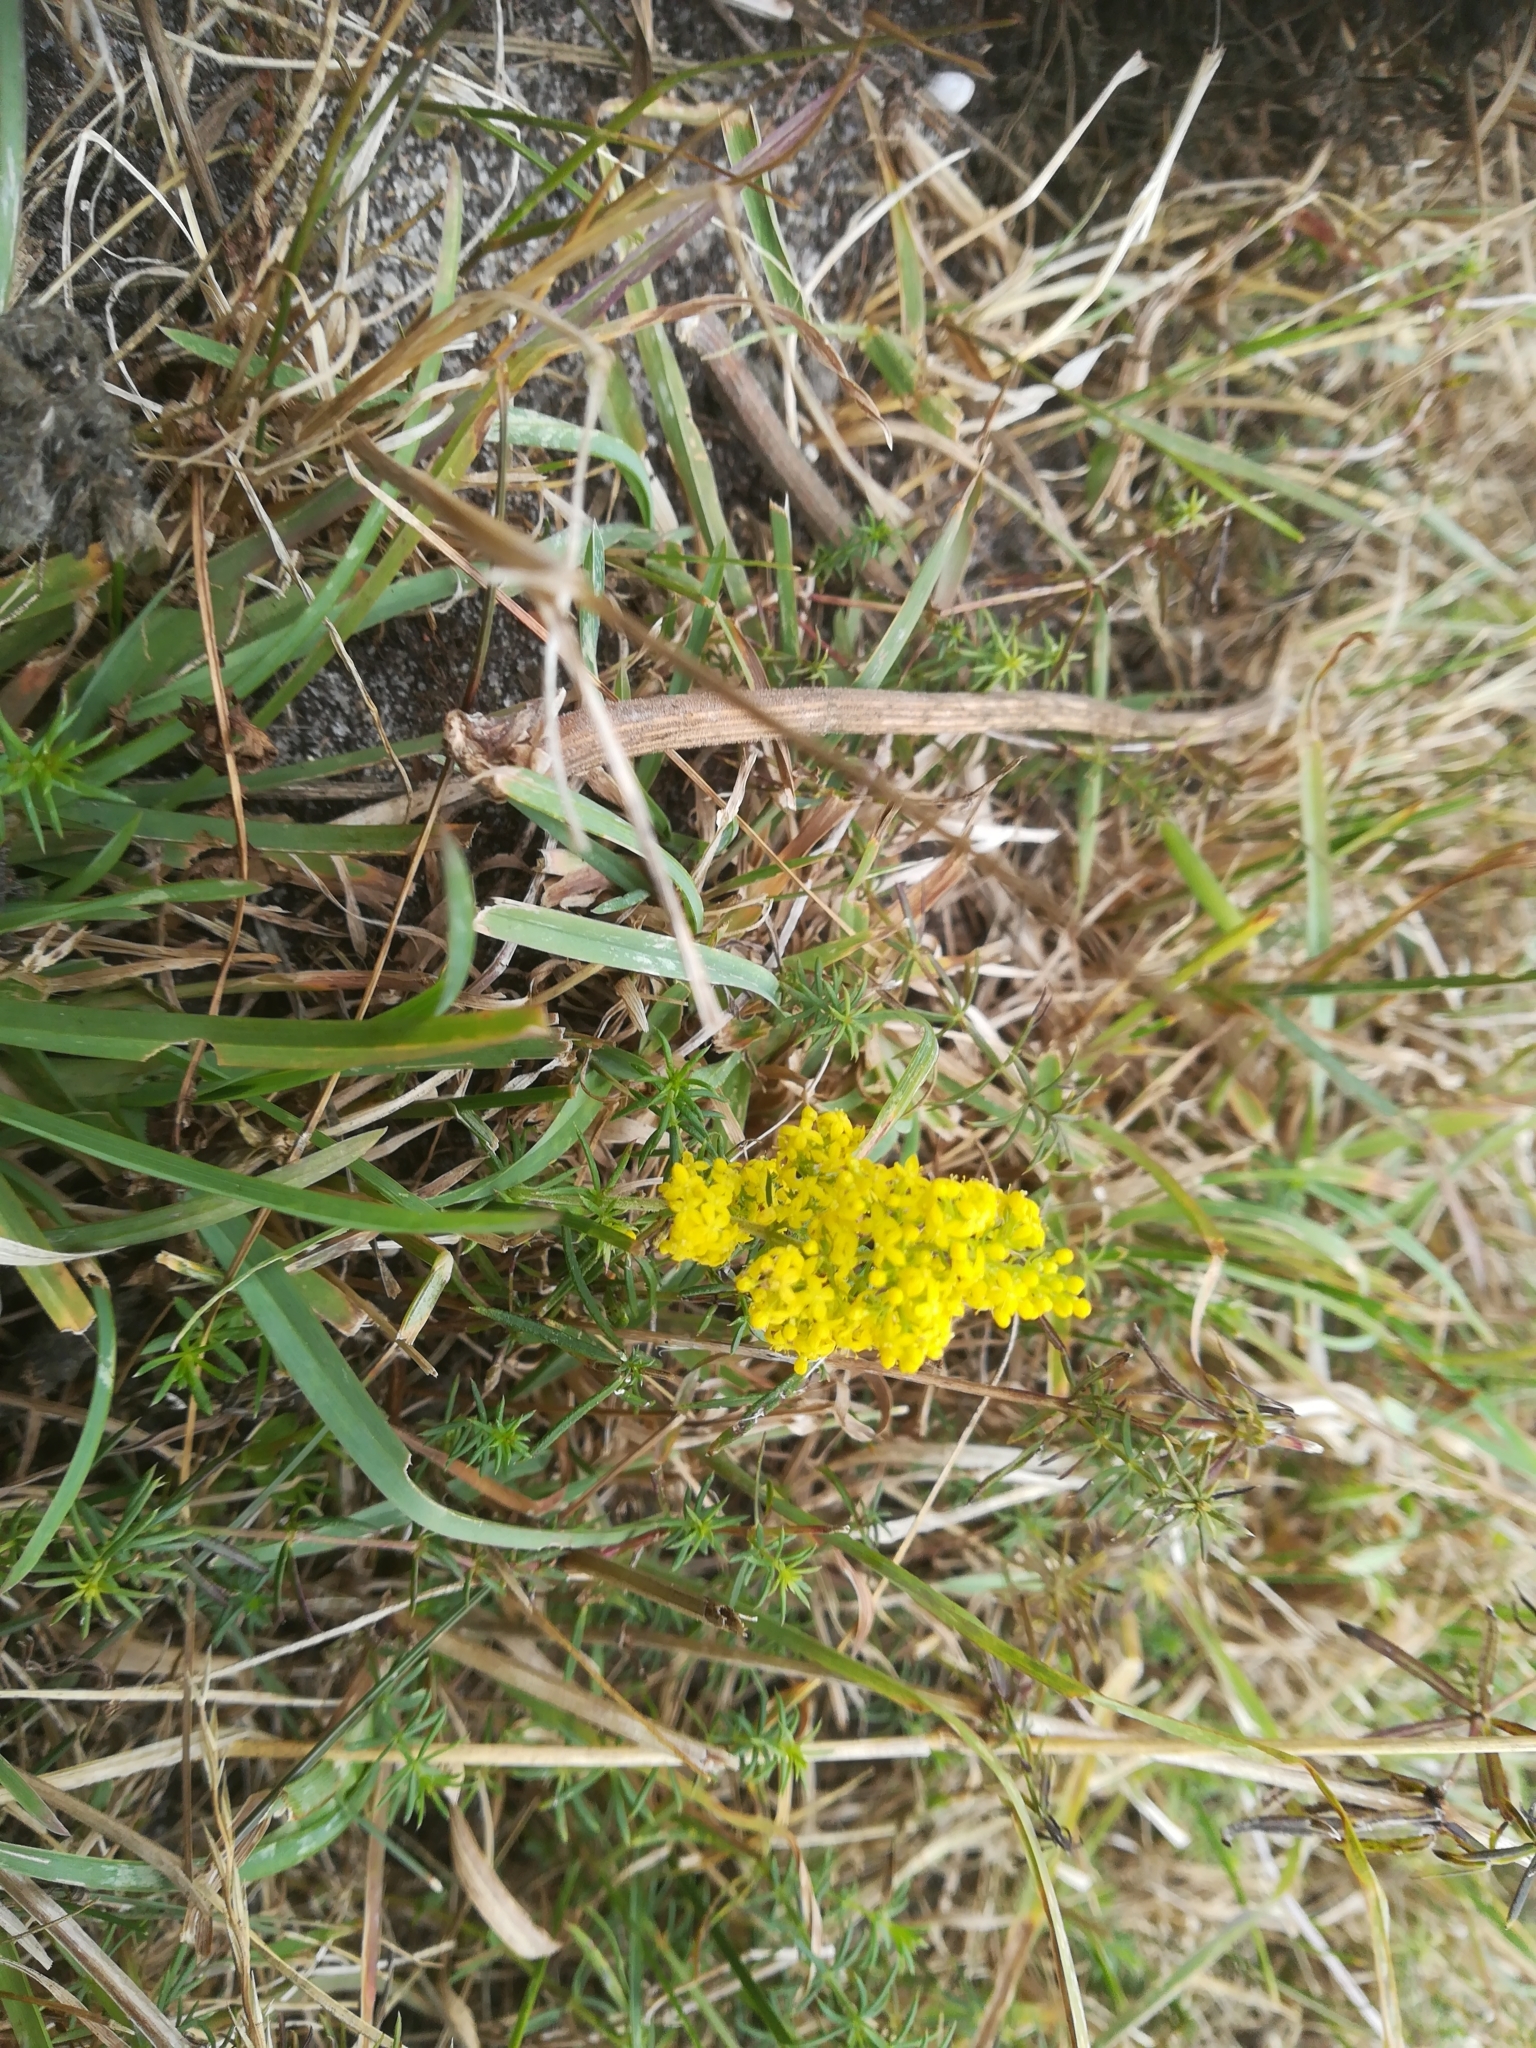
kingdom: Plantae
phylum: Tracheophyta
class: Magnoliopsida
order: Gentianales
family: Rubiaceae
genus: Galium
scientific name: Galium verum
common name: Lady's bedstraw
